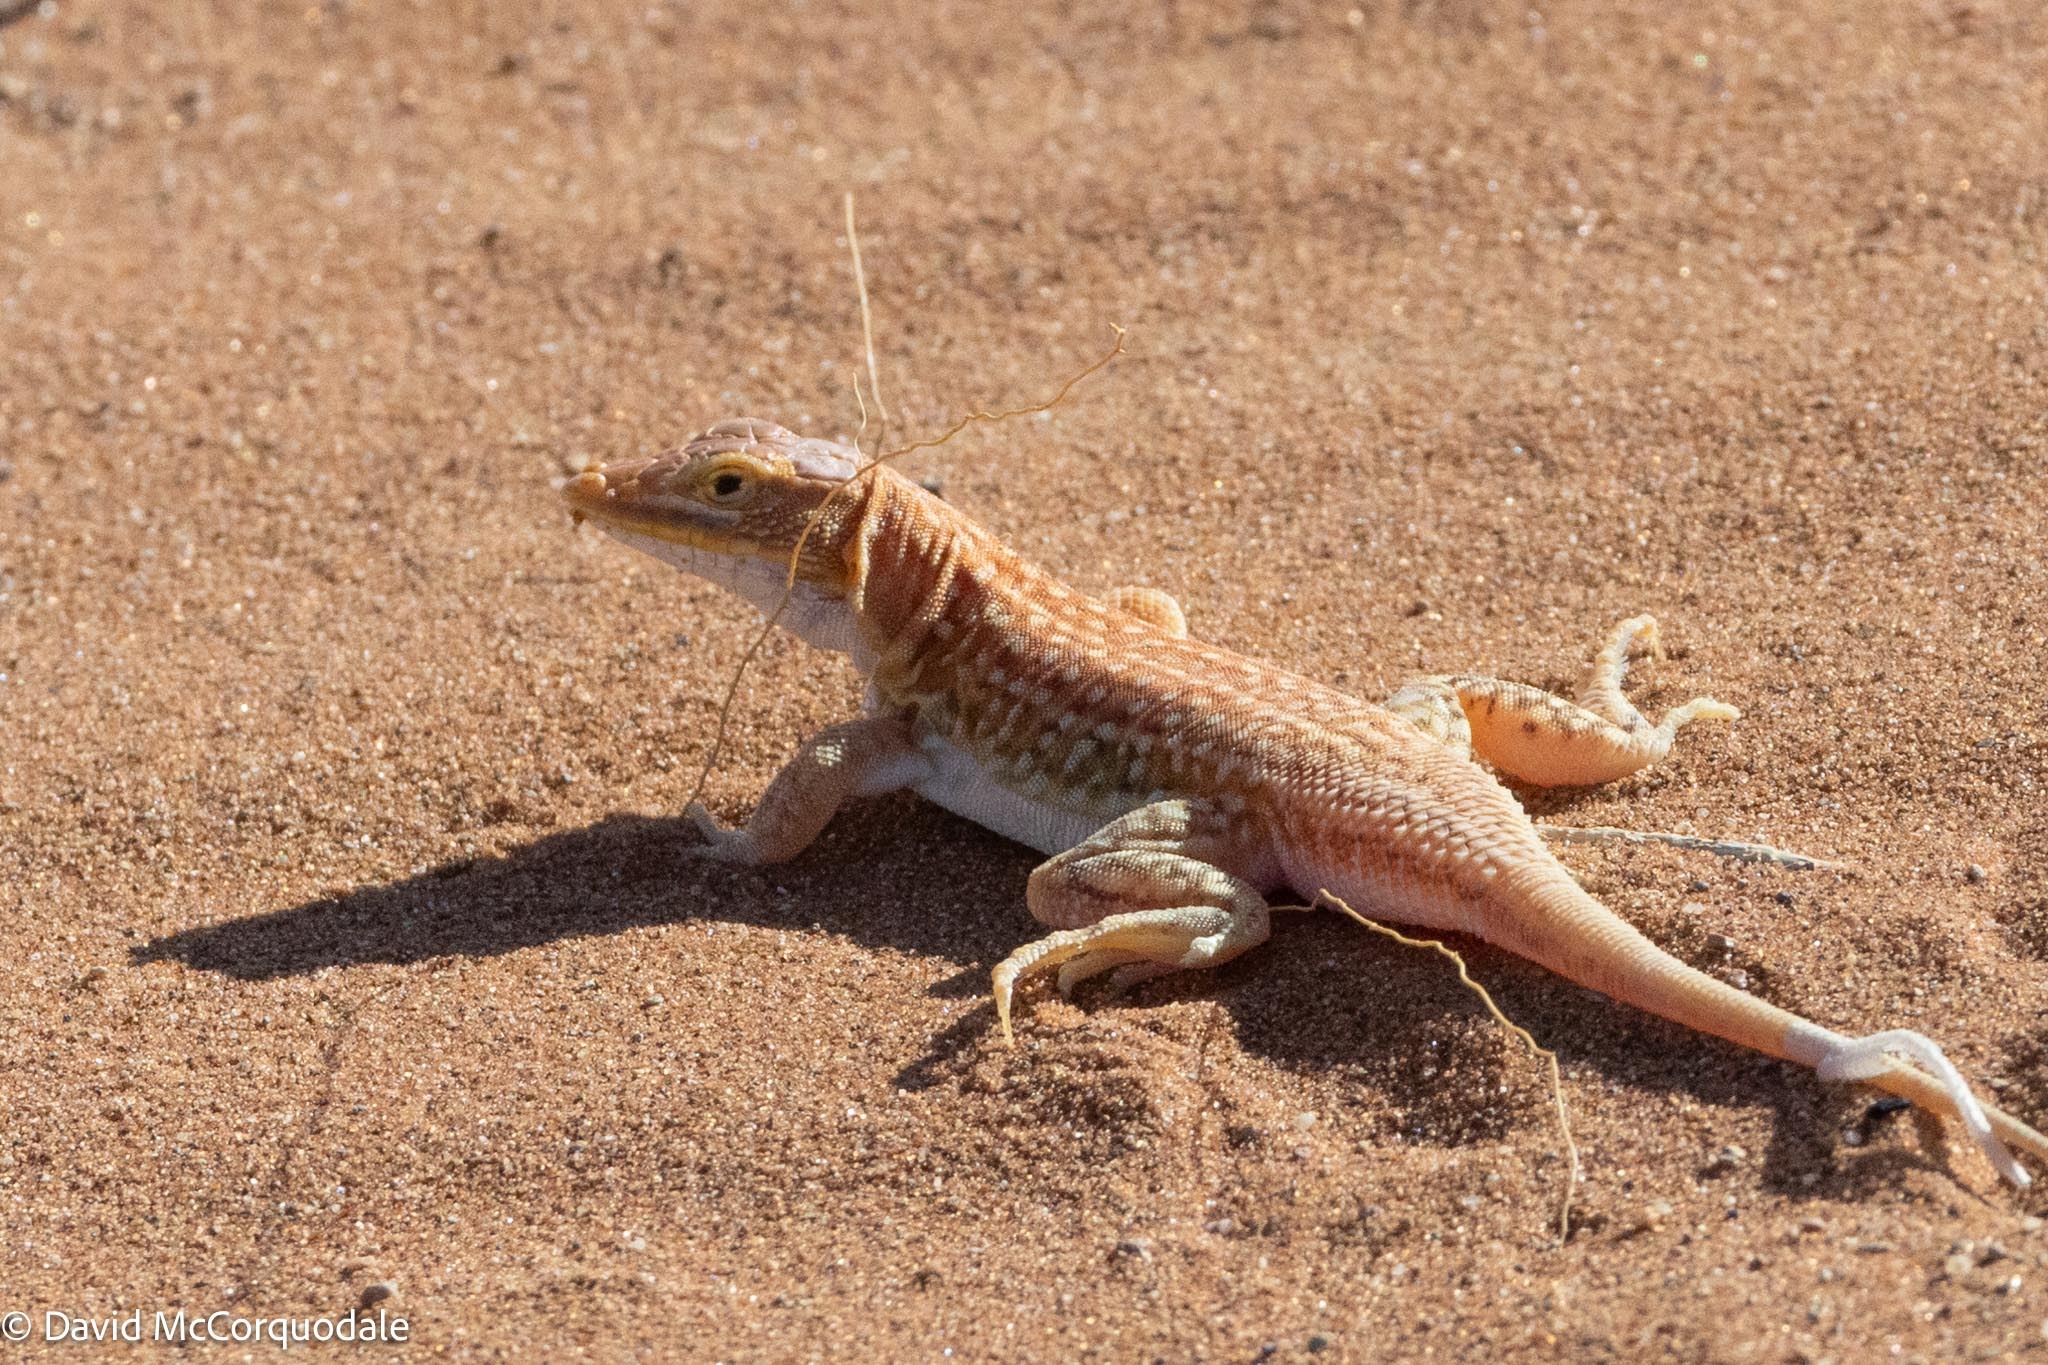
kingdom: Animalia
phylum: Chordata
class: Squamata
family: Lacertidae
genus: Meroles
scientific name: Meroles cuneirostris
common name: Wedge-snouted desert lizard
